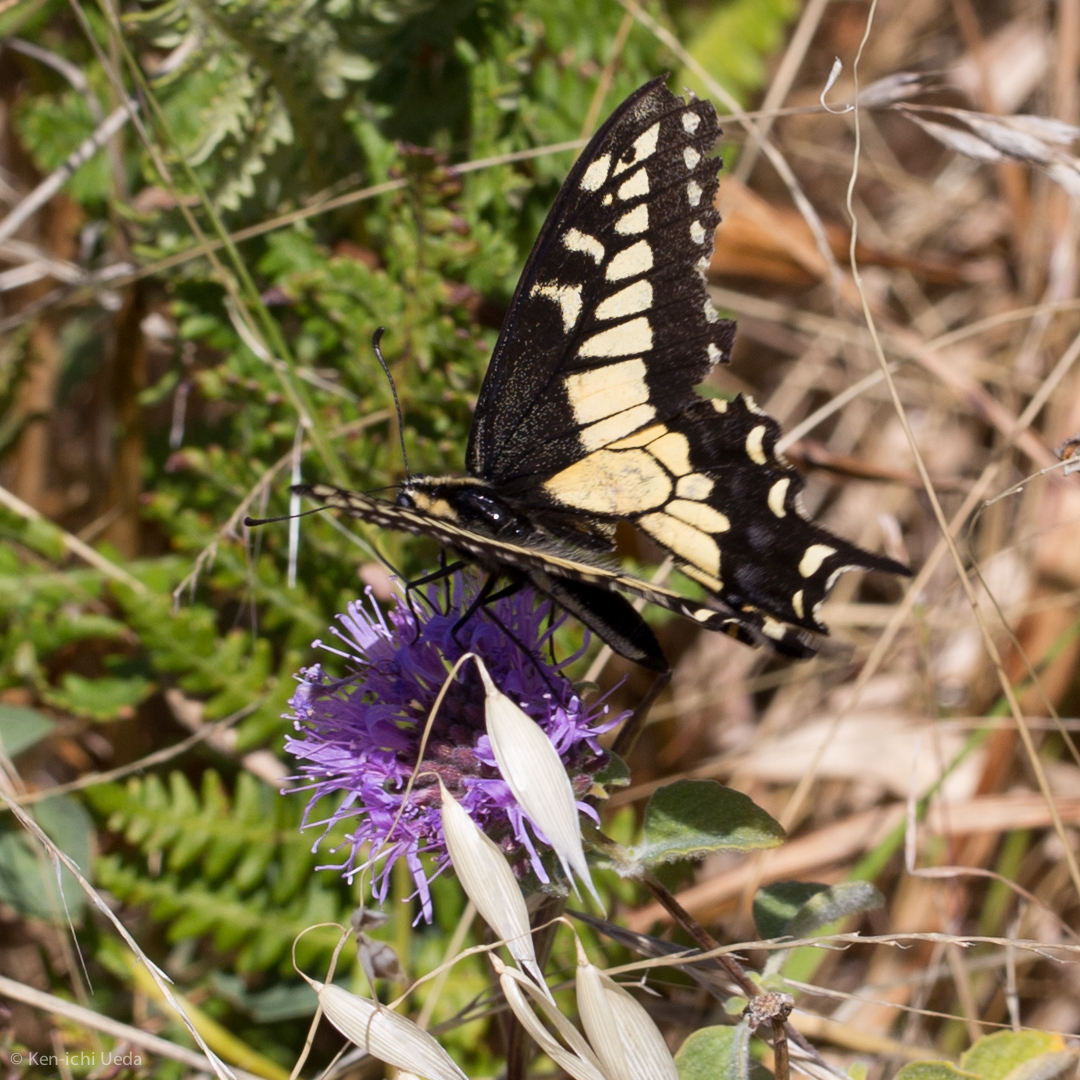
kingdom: Animalia
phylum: Arthropoda
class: Insecta
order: Lepidoptera
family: Papilionidae
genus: Papilio
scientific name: Papilio zelicaon
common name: Anise swallowtail
